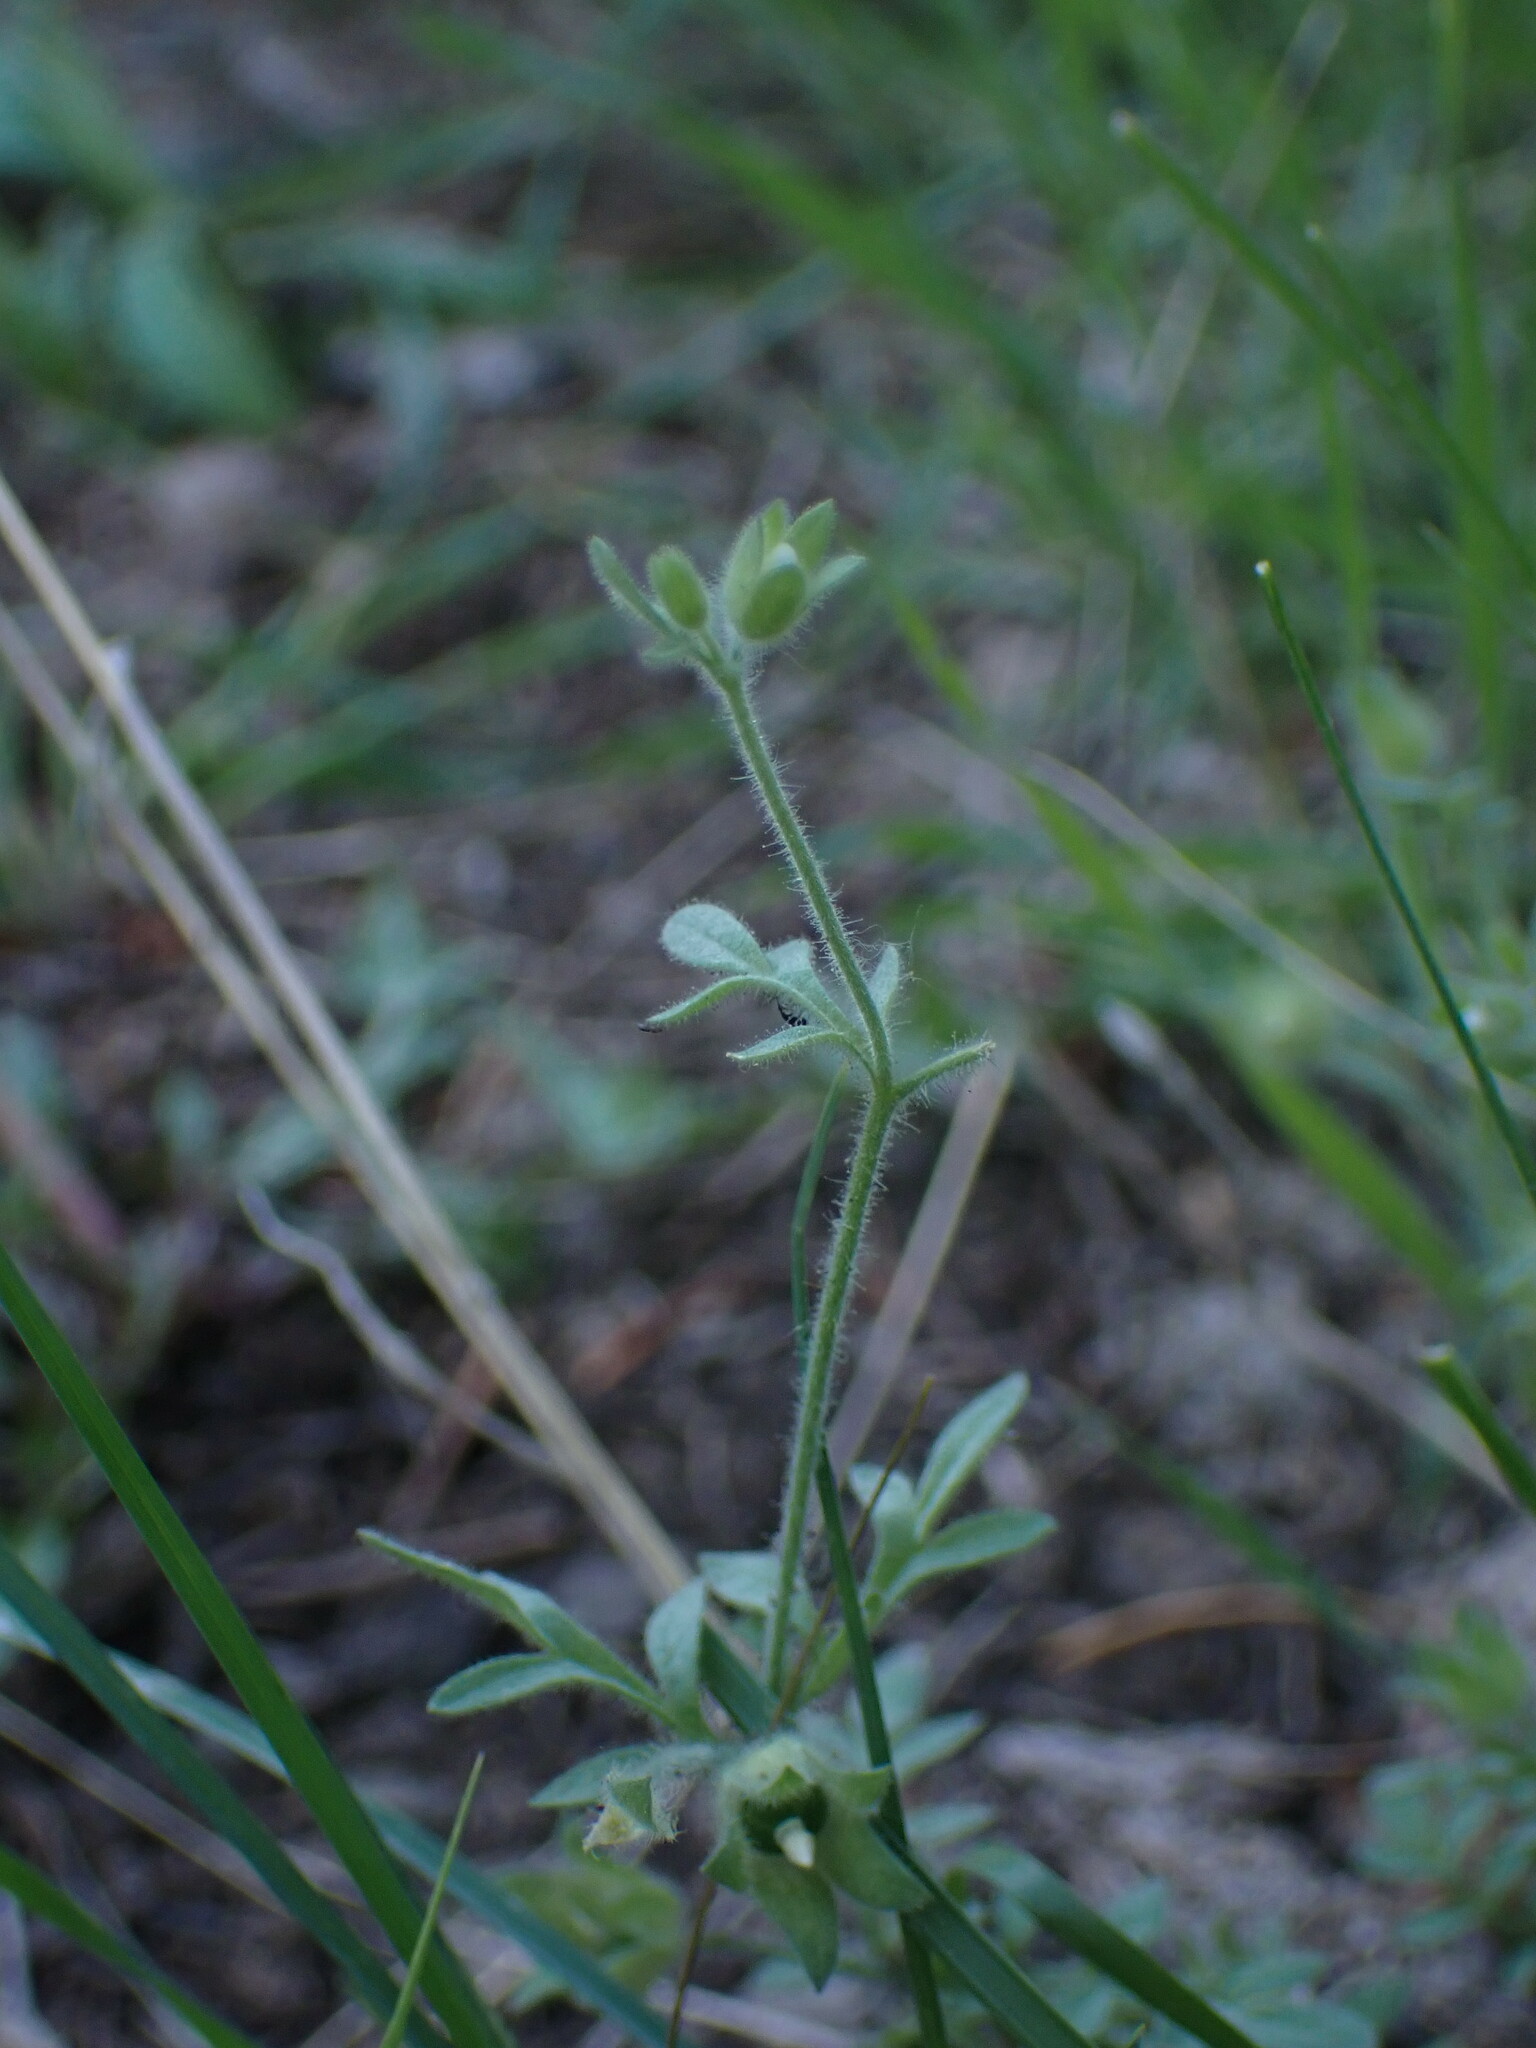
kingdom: Plantae
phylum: Tracheophyta
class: Magnoliopsida
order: Ericales
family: Polemoniaceae
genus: Polemonium
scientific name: Polemonium micranthum
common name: Annual jacob's-ladder
